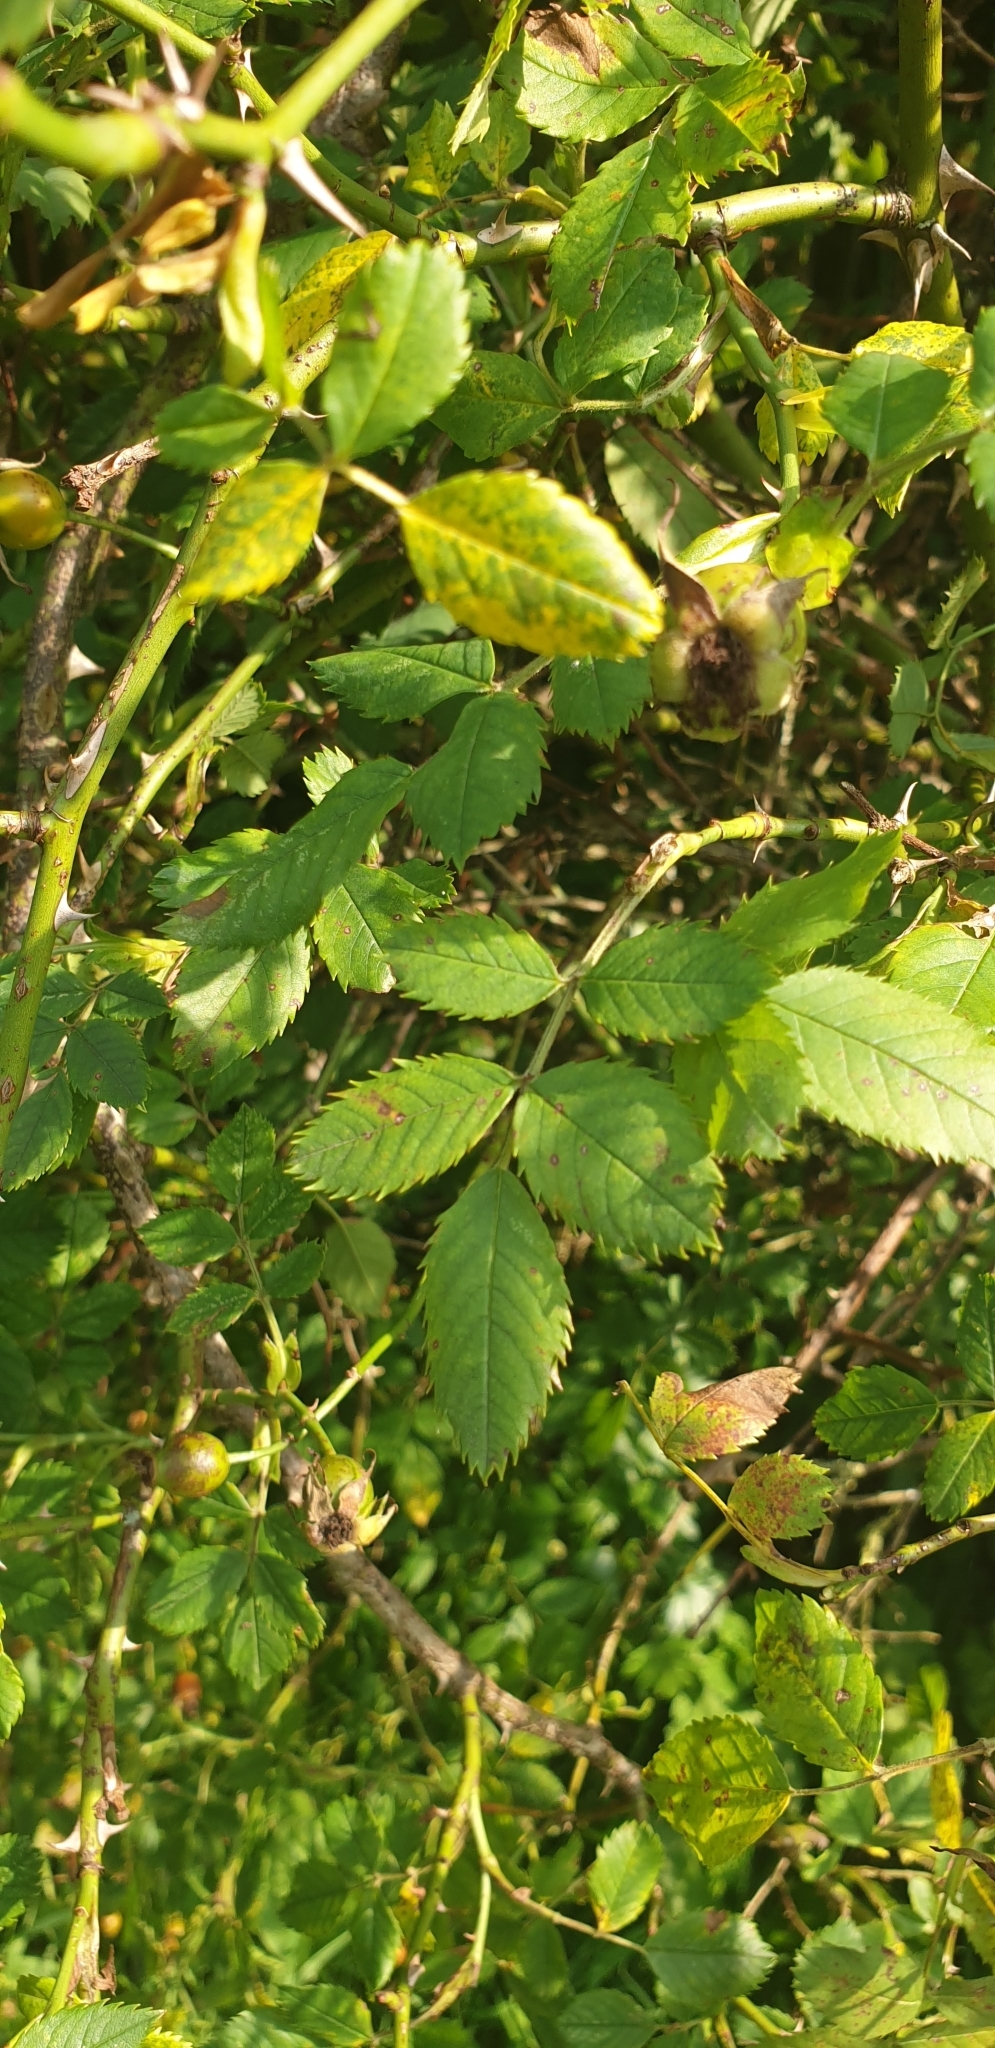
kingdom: Plantae
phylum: Tracheophyta
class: Magnoliopsida
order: Rosales
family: Rosaceae
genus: Rosa
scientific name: Rosa canina
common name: Dog rose
